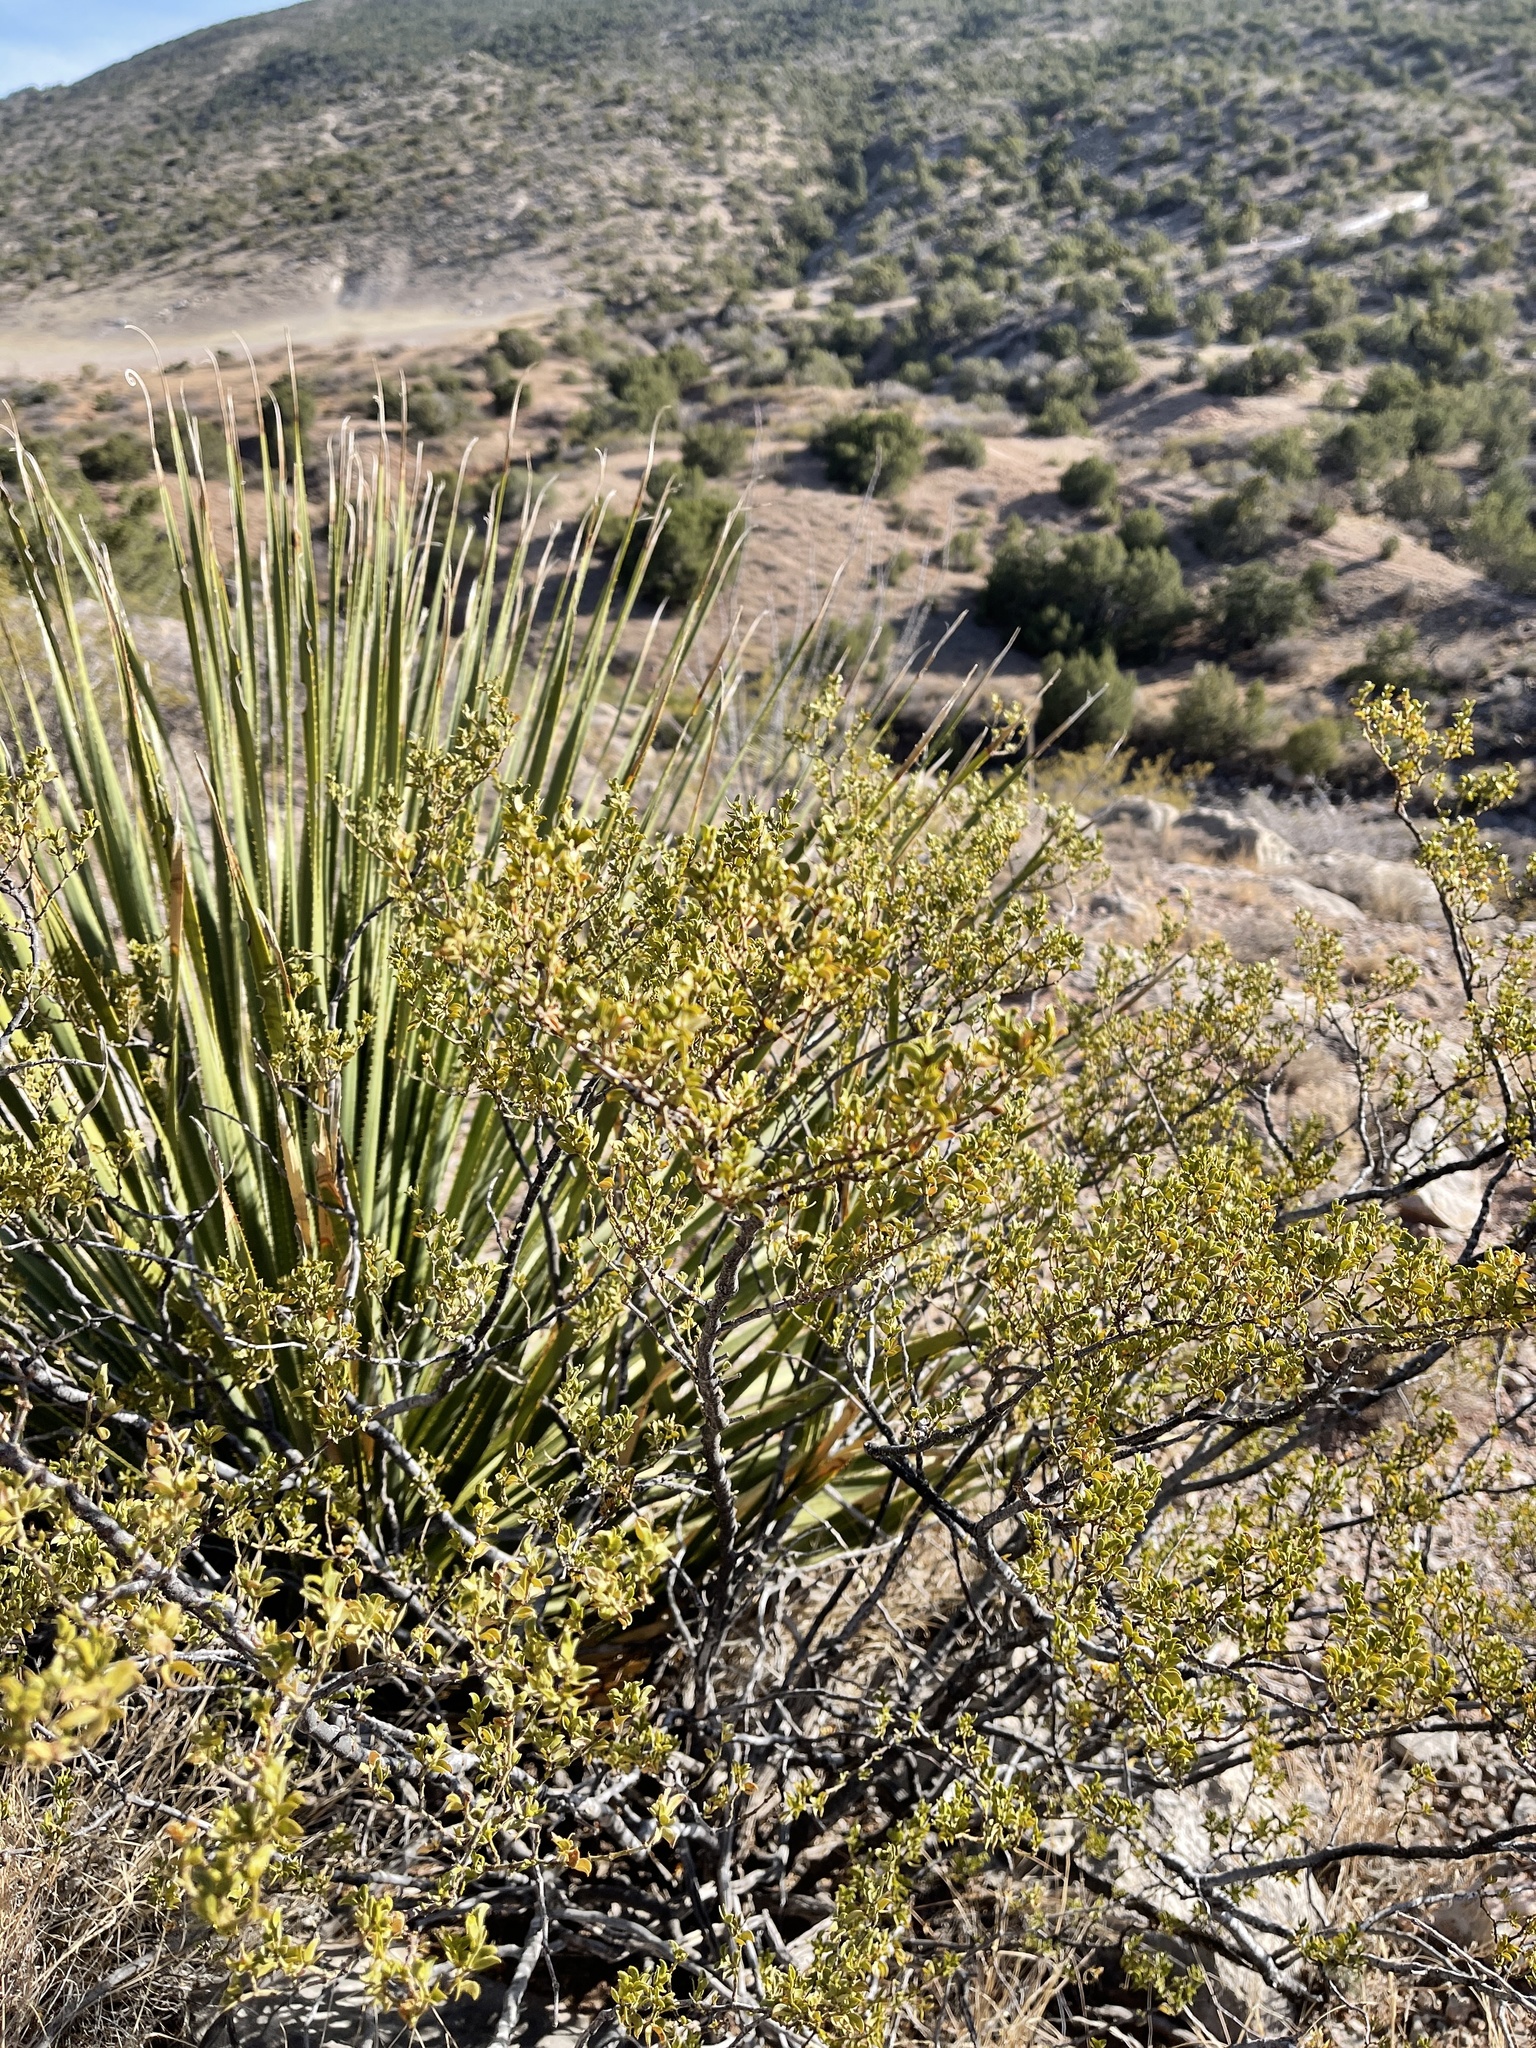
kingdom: Plantae
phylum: Tracheophyta
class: Magnoliopsida
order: Zygophyllales
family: Zygophyllaceae
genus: Larrea
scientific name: Larrea tridentata
